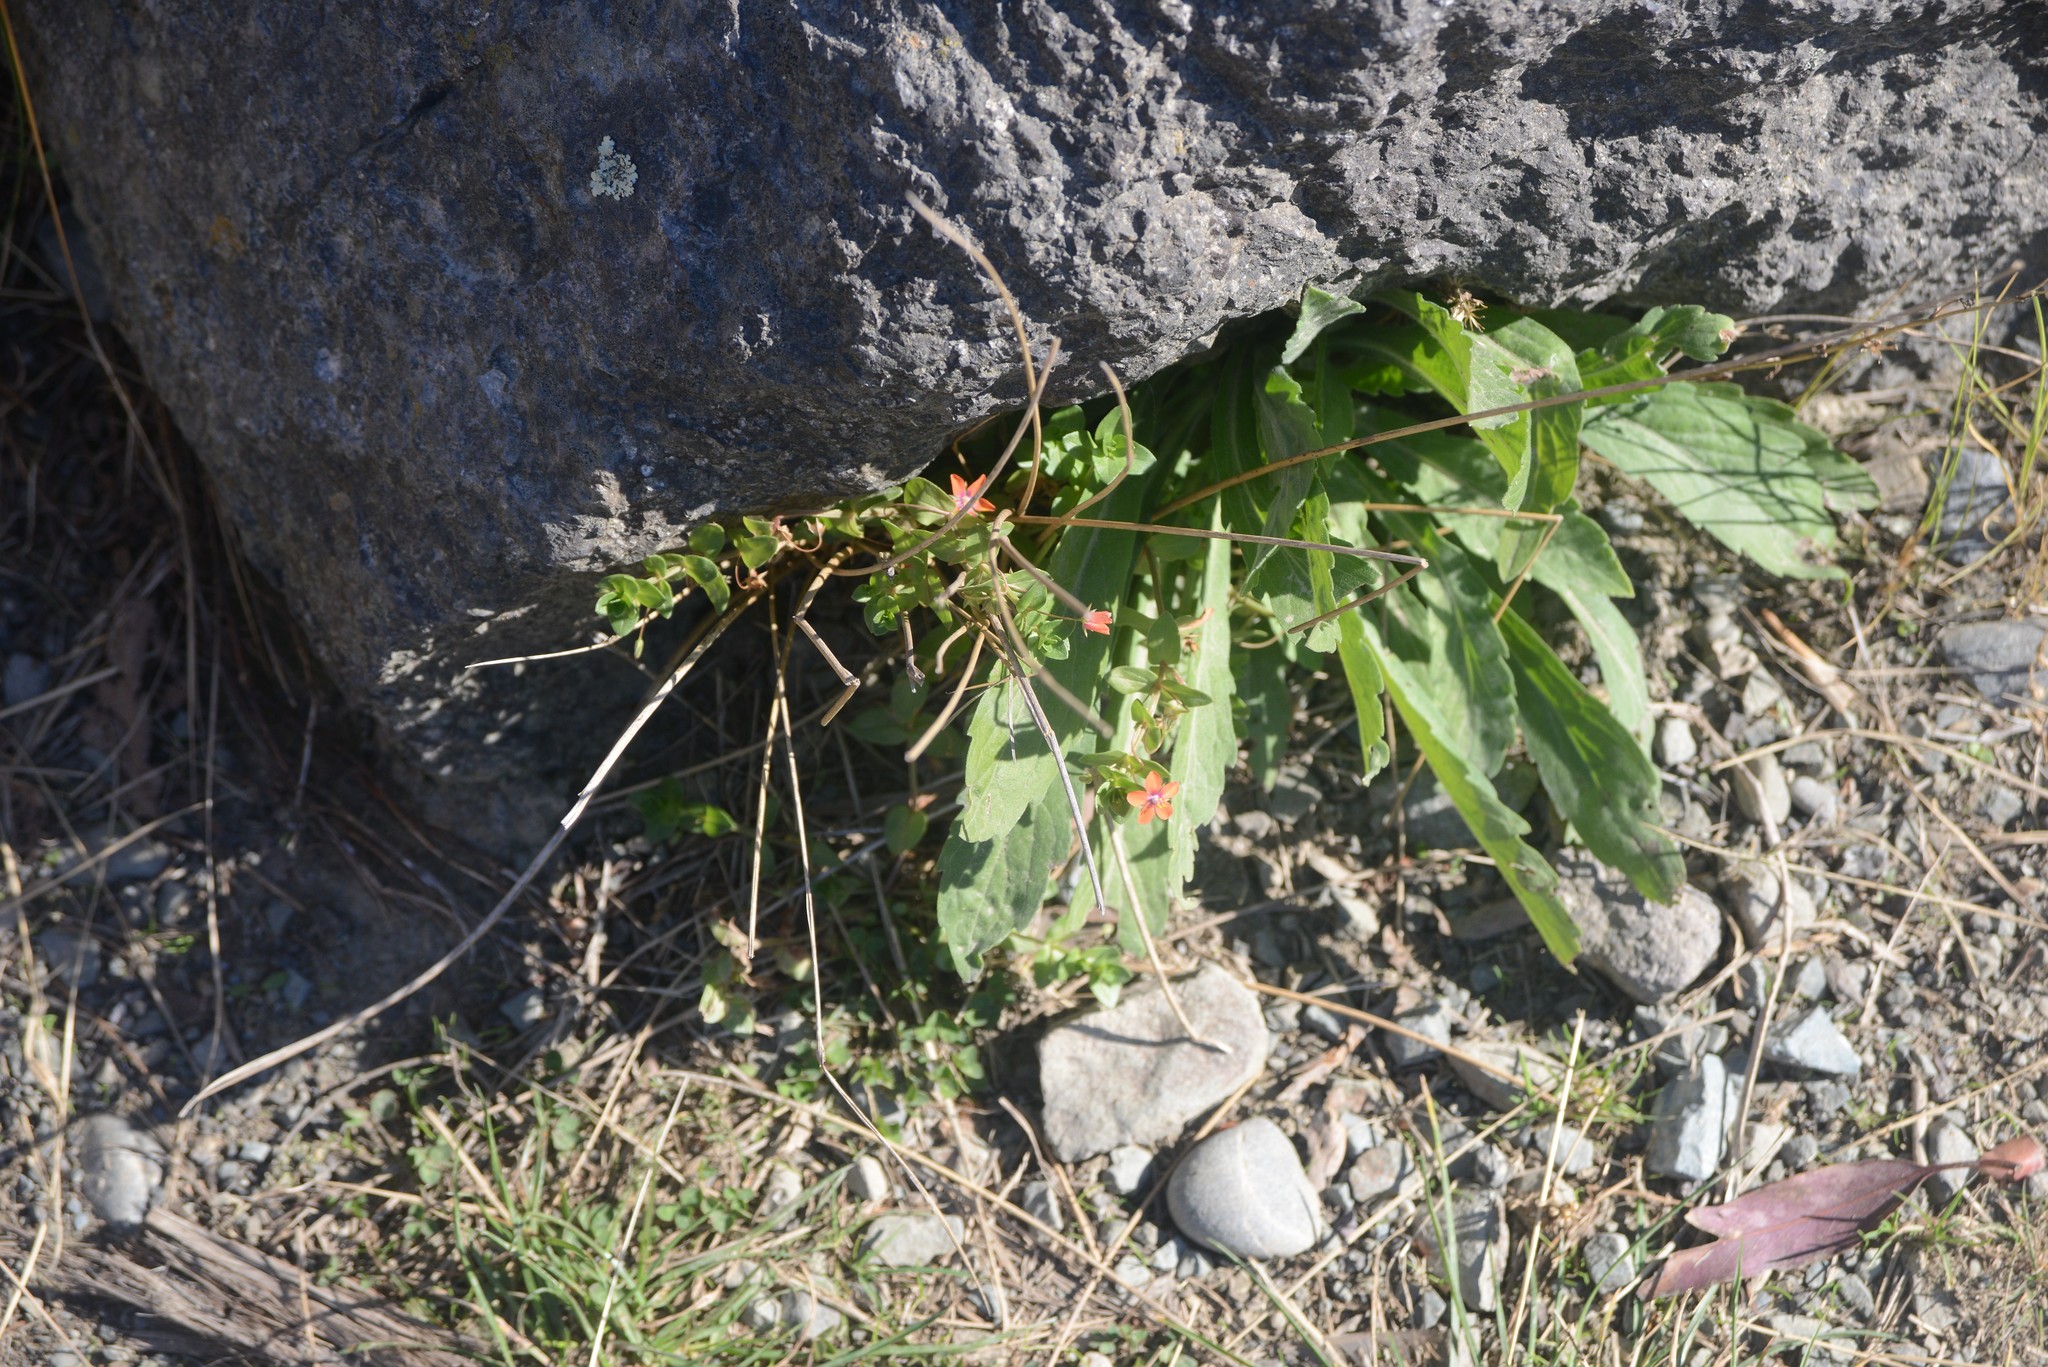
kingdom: Plantae
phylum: Tracheophyta
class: Magnoliopsida
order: Ericales
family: Primulaceae
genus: Lysimachia
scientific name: Lysimachia arvensis
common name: Scarlet pimpernel
